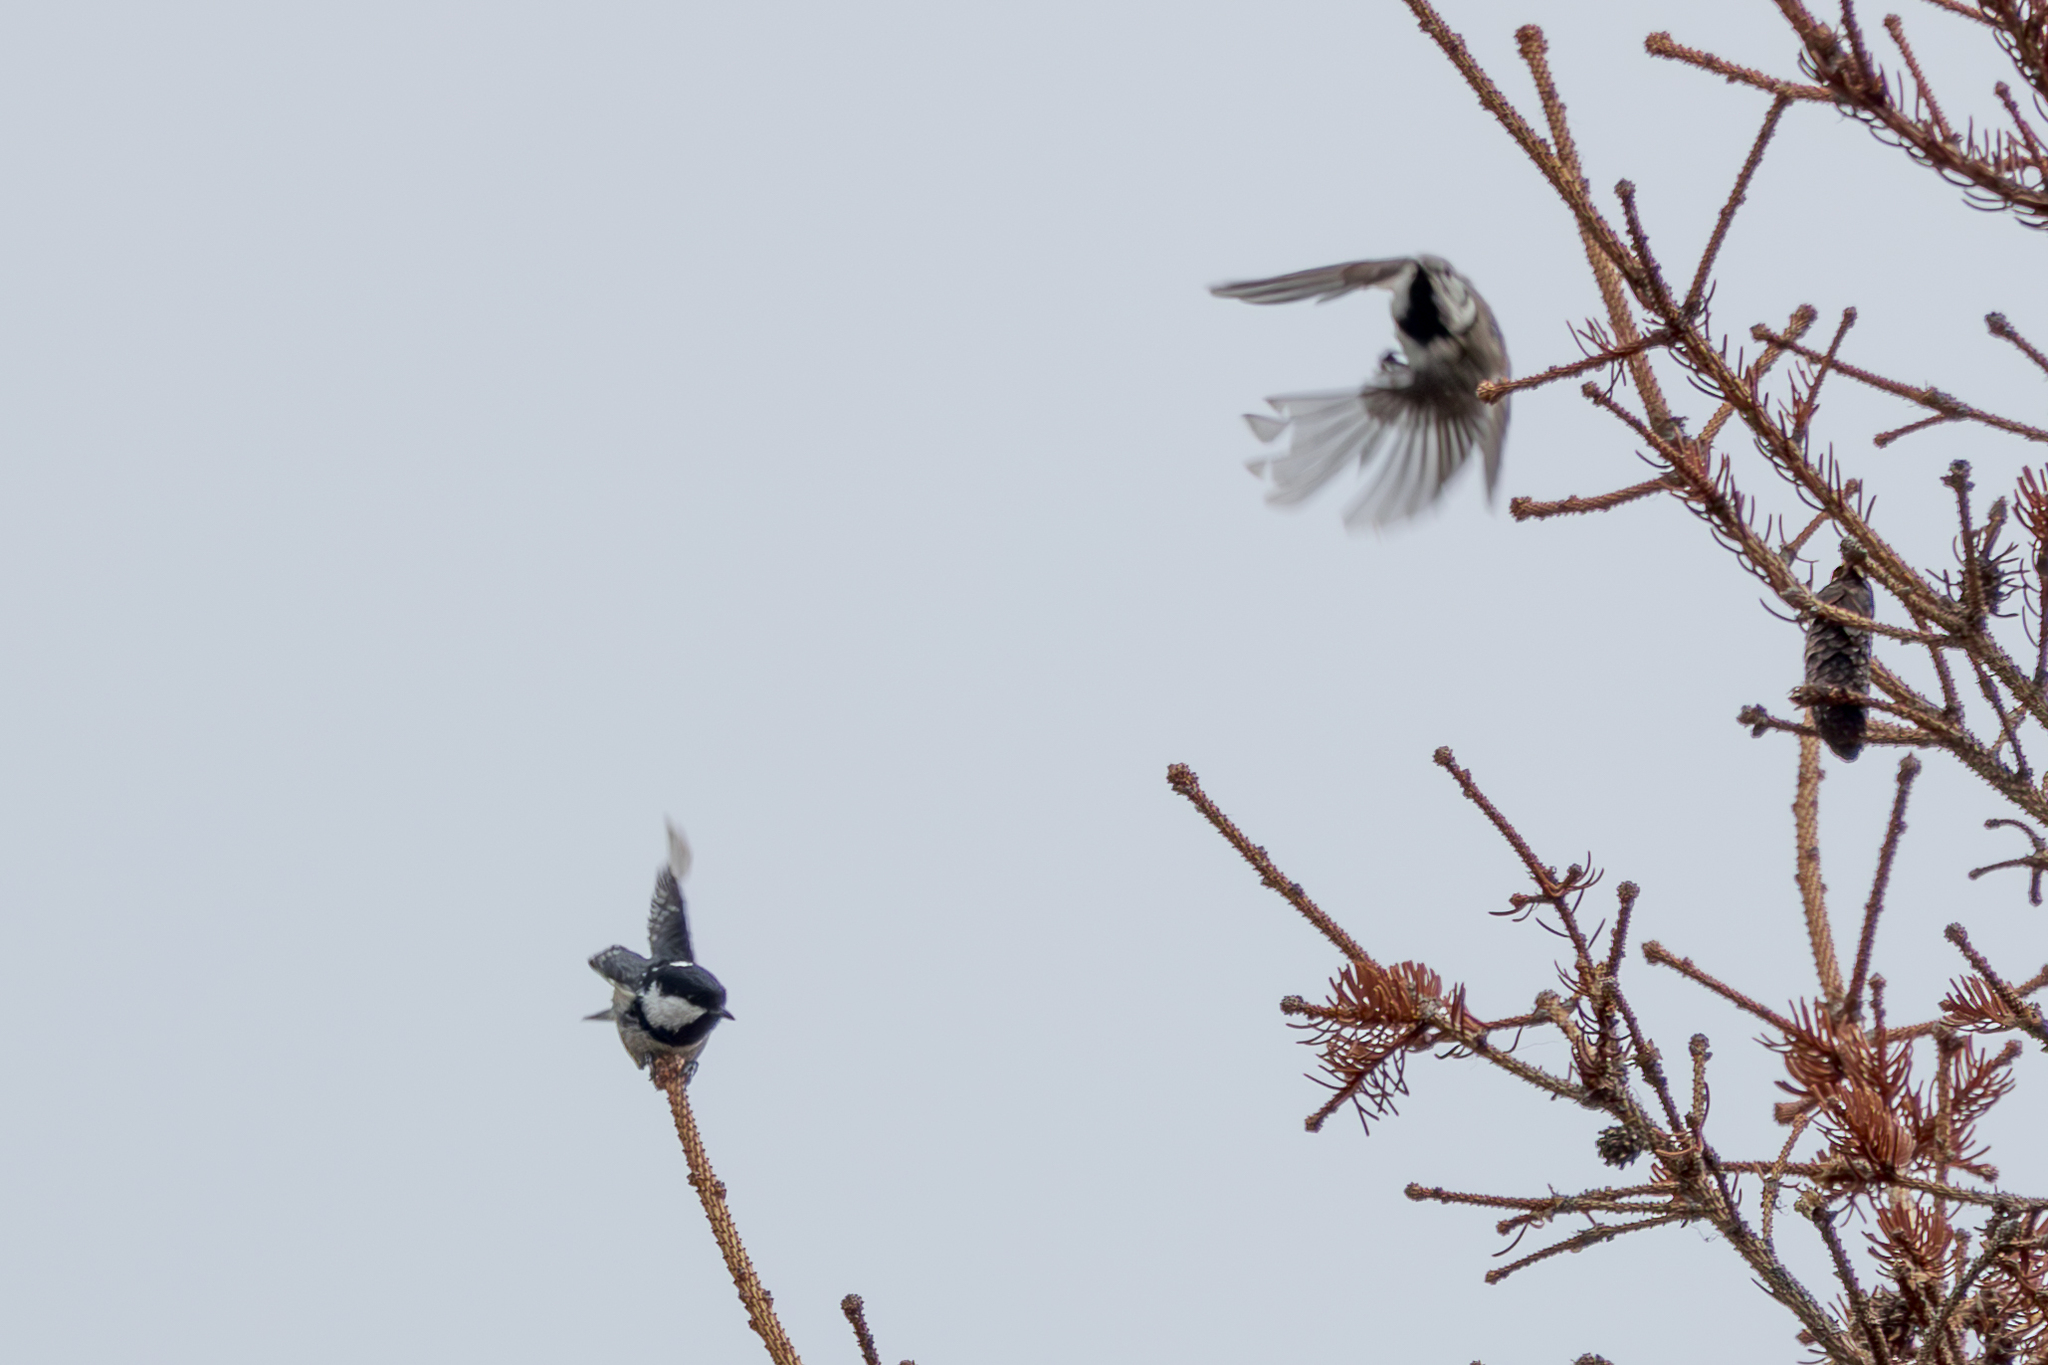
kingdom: Animalia
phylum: Chordata
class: Aves
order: Passeriformes
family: Paridae
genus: Lophophanes
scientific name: Lophophanes cristatus
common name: European crested tit
